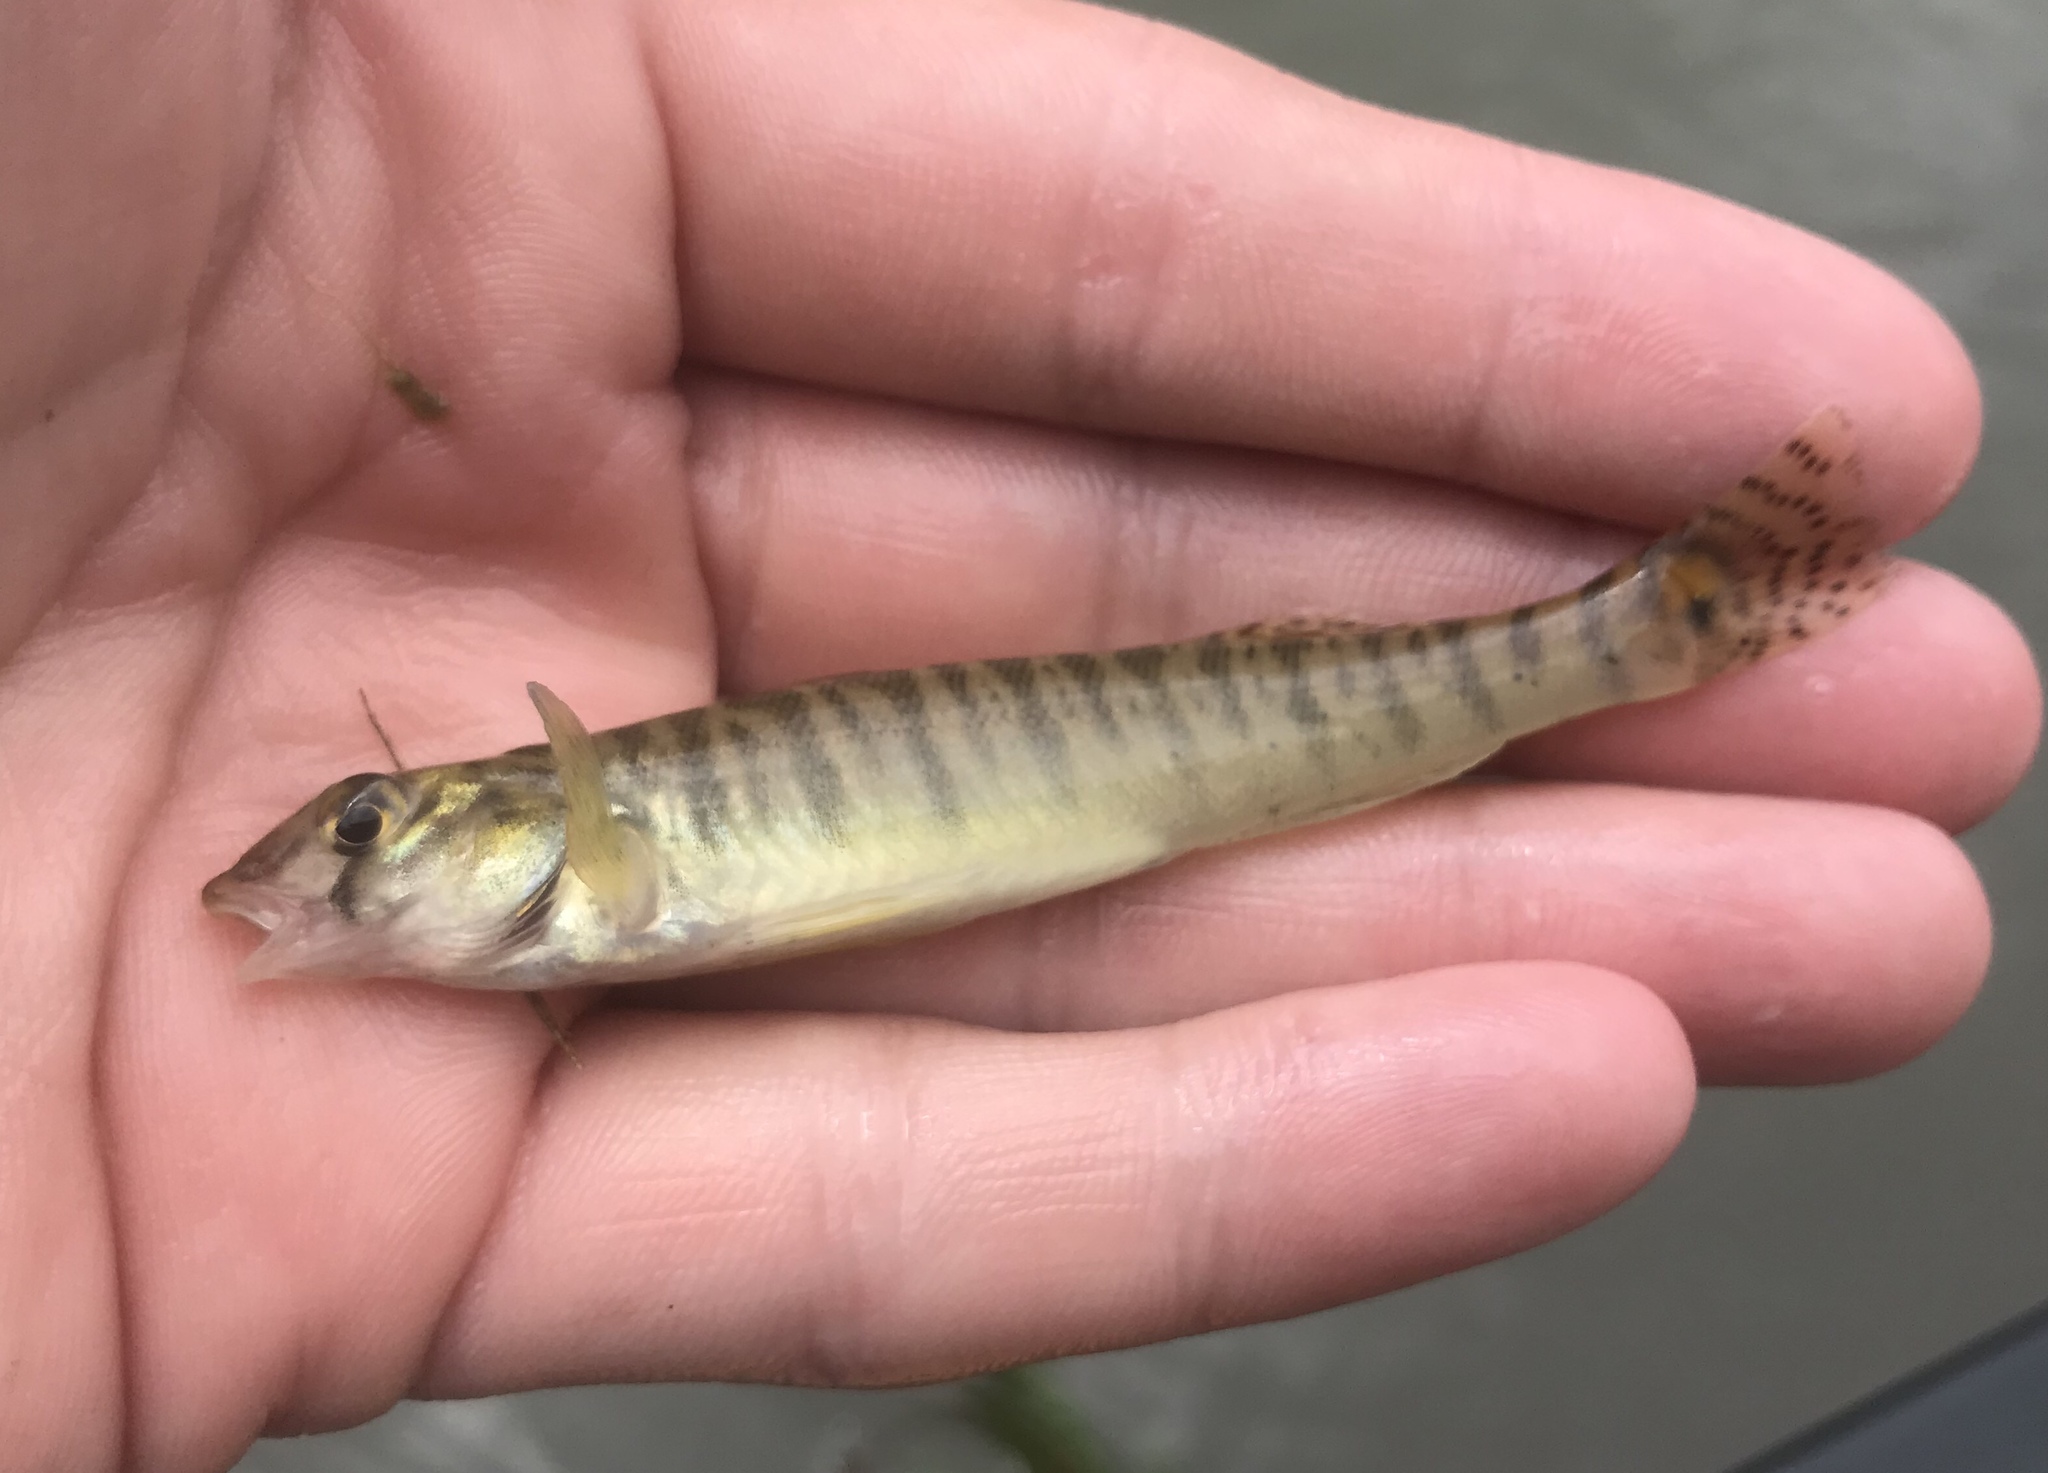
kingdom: Animalia
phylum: Chordata
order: Perciformes
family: Percidae
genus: Percina
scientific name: Percina carbonaria
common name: Texas logperch
